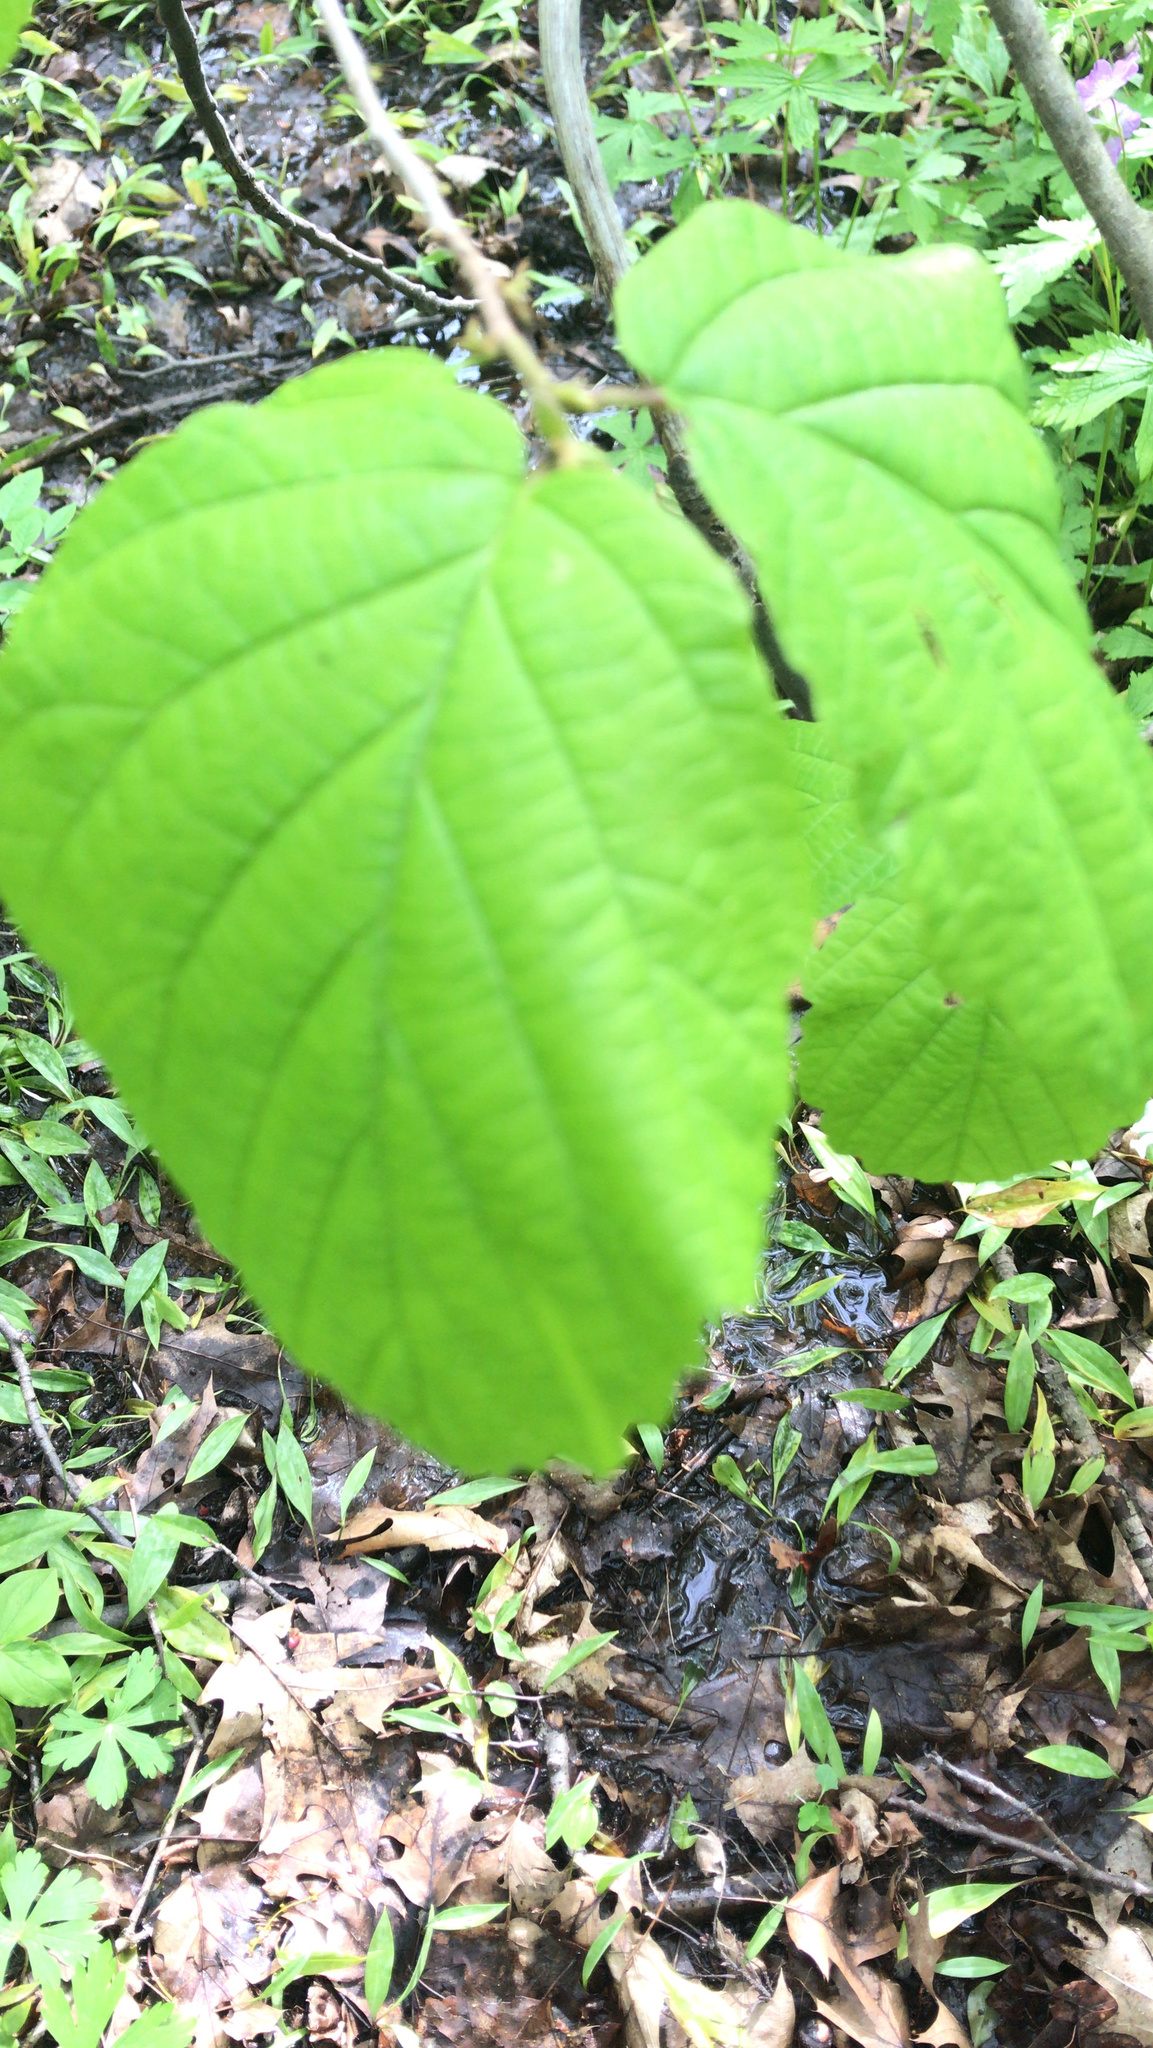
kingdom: Plantae
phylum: Tracheophyta
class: Magnoliopsida
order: Saxifragales
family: Hamamelidaceae
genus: Hamamelis
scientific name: Hamamelis virginiana
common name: Witch-hazel
